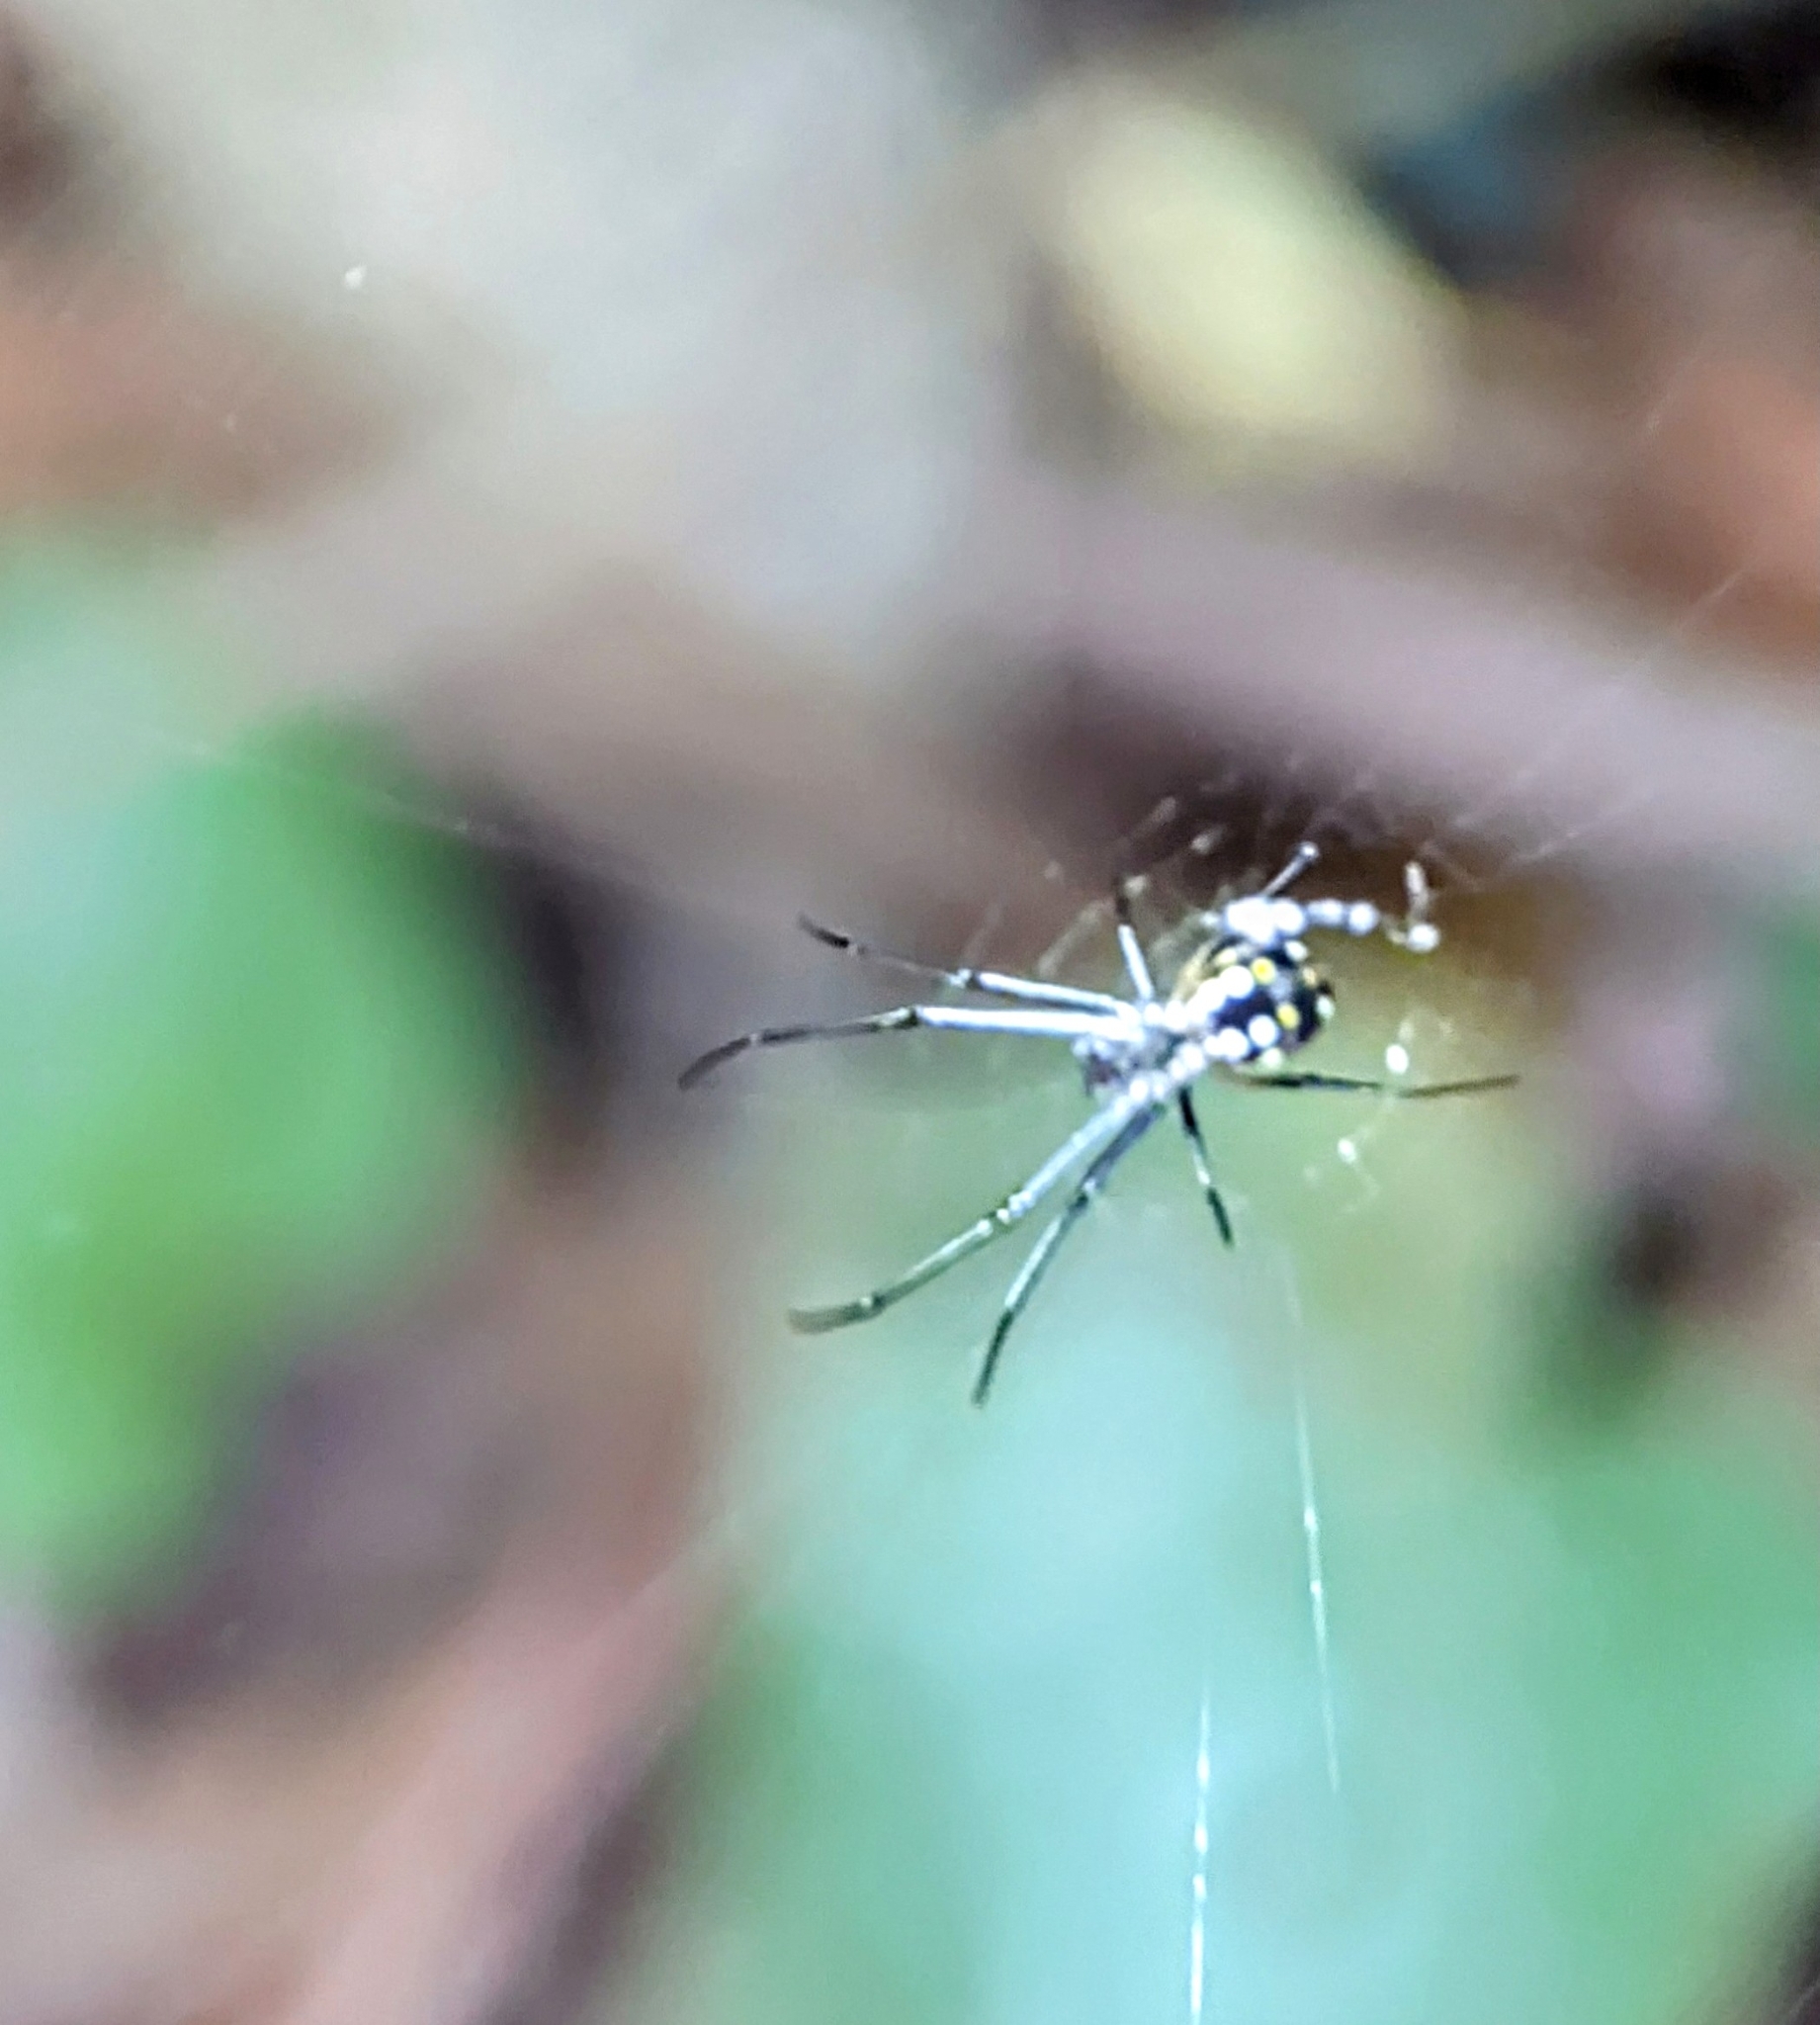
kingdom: Animalia
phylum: Arthropoda
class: Arachnida
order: Araneae
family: Tetragnathidae
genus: Leucauge
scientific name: Leucauge argentina
